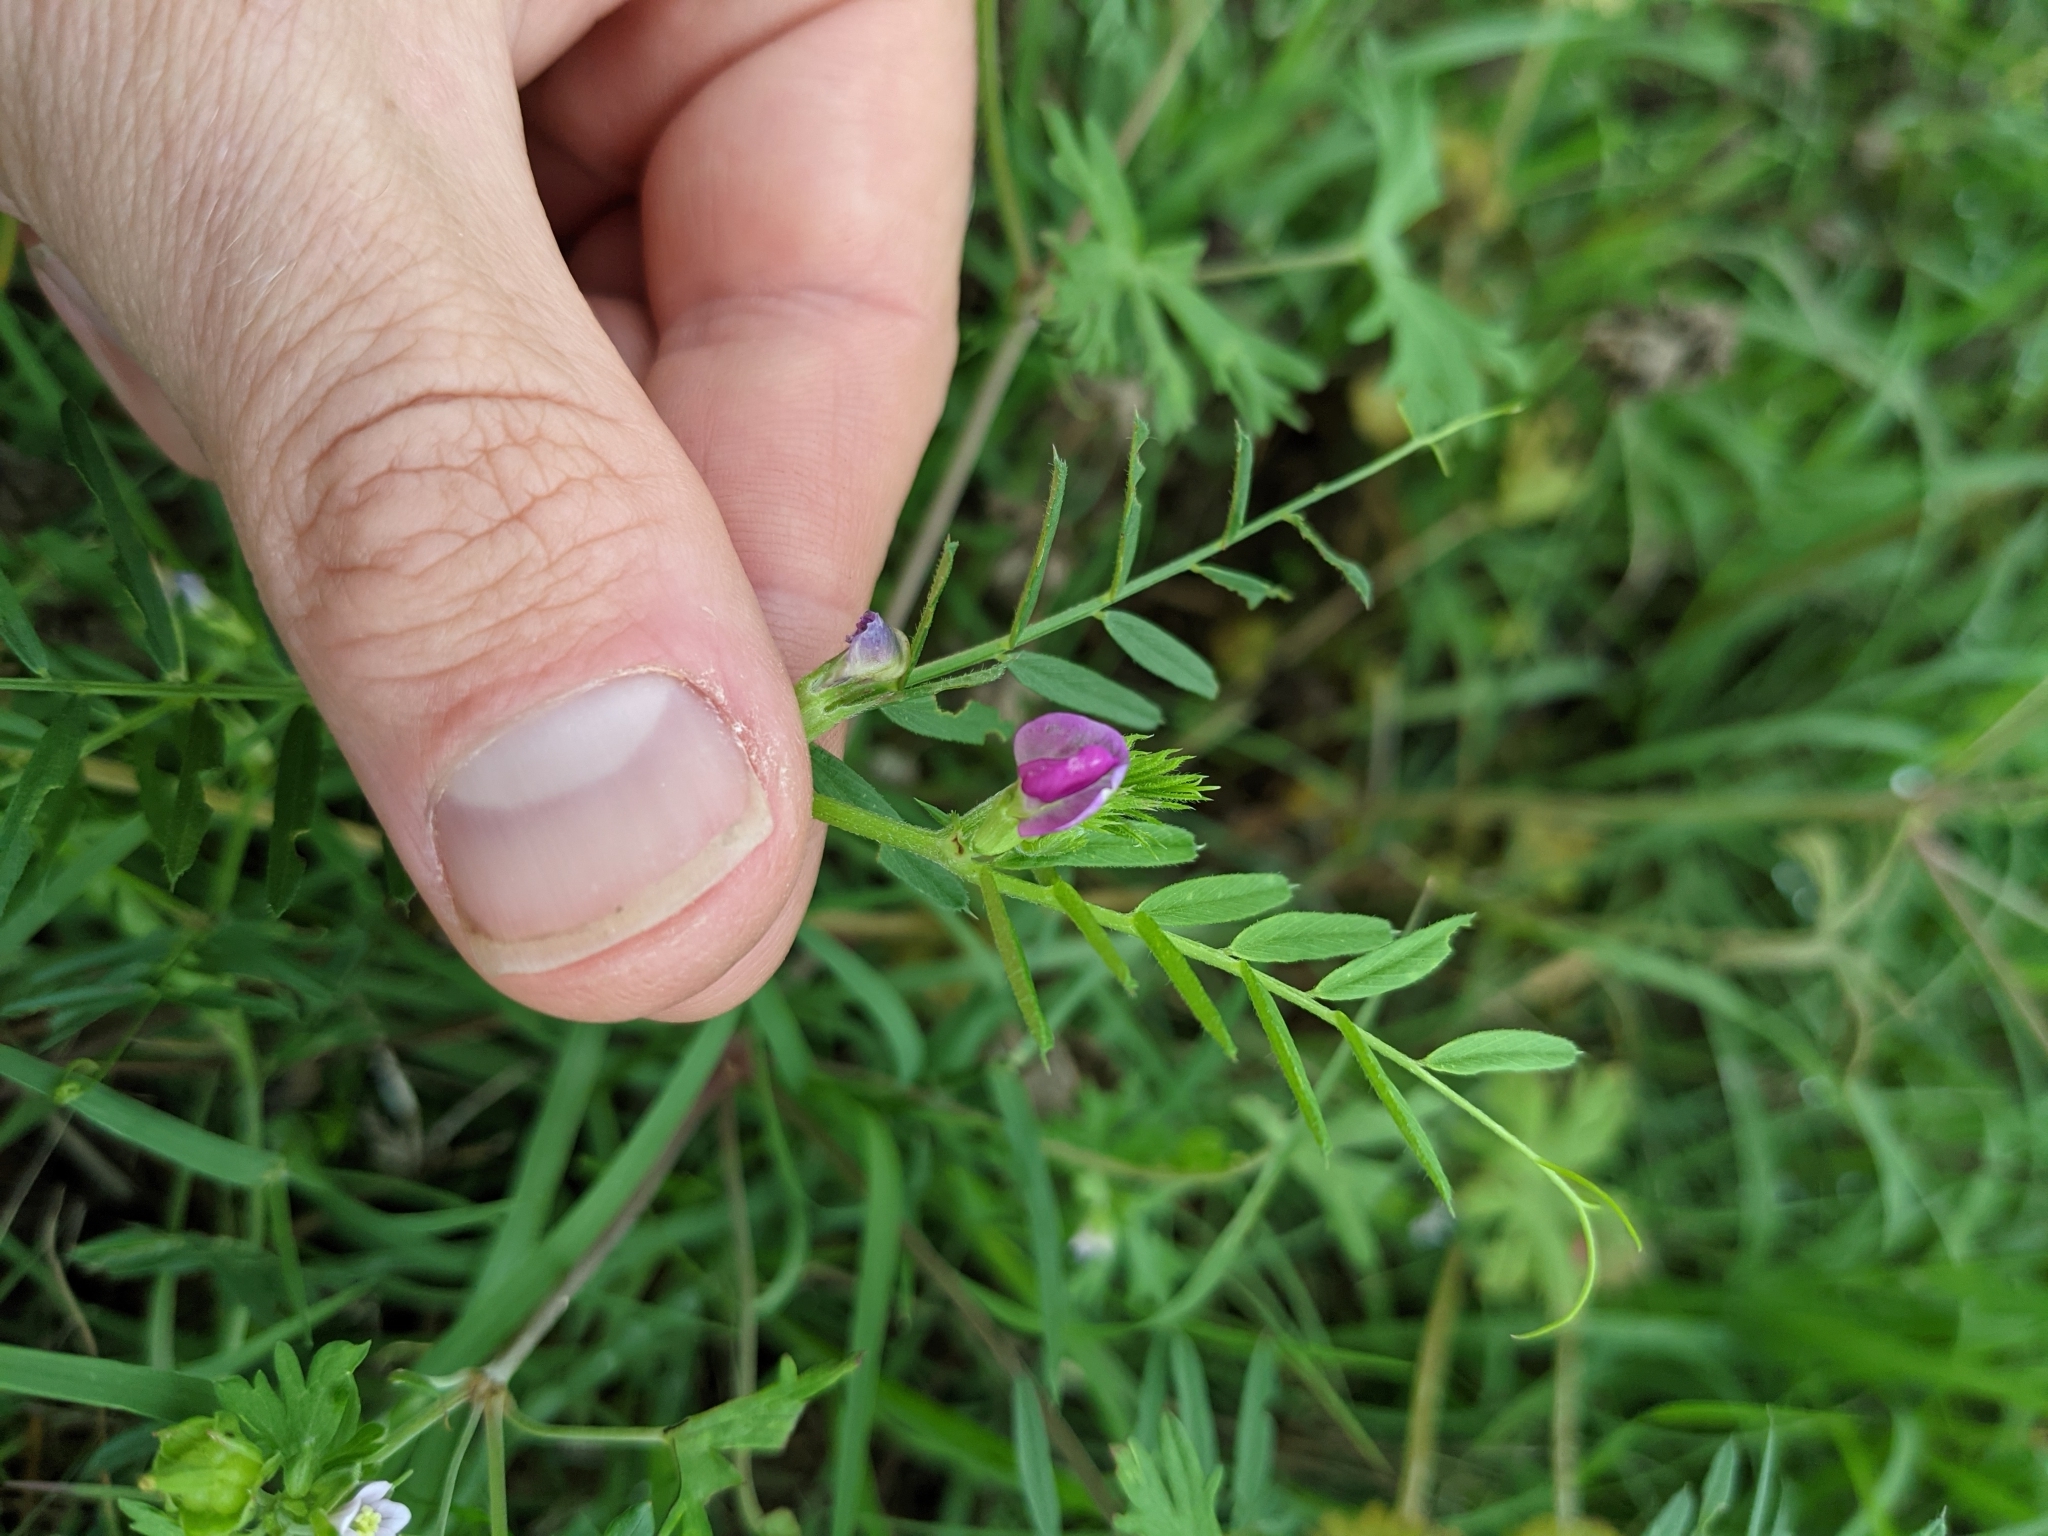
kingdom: Plantae
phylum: Tracheophyta
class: Magnoliopsida
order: Fabales
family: Fabaceae
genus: Vicia
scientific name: Vicia sativa
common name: Garden vetch
